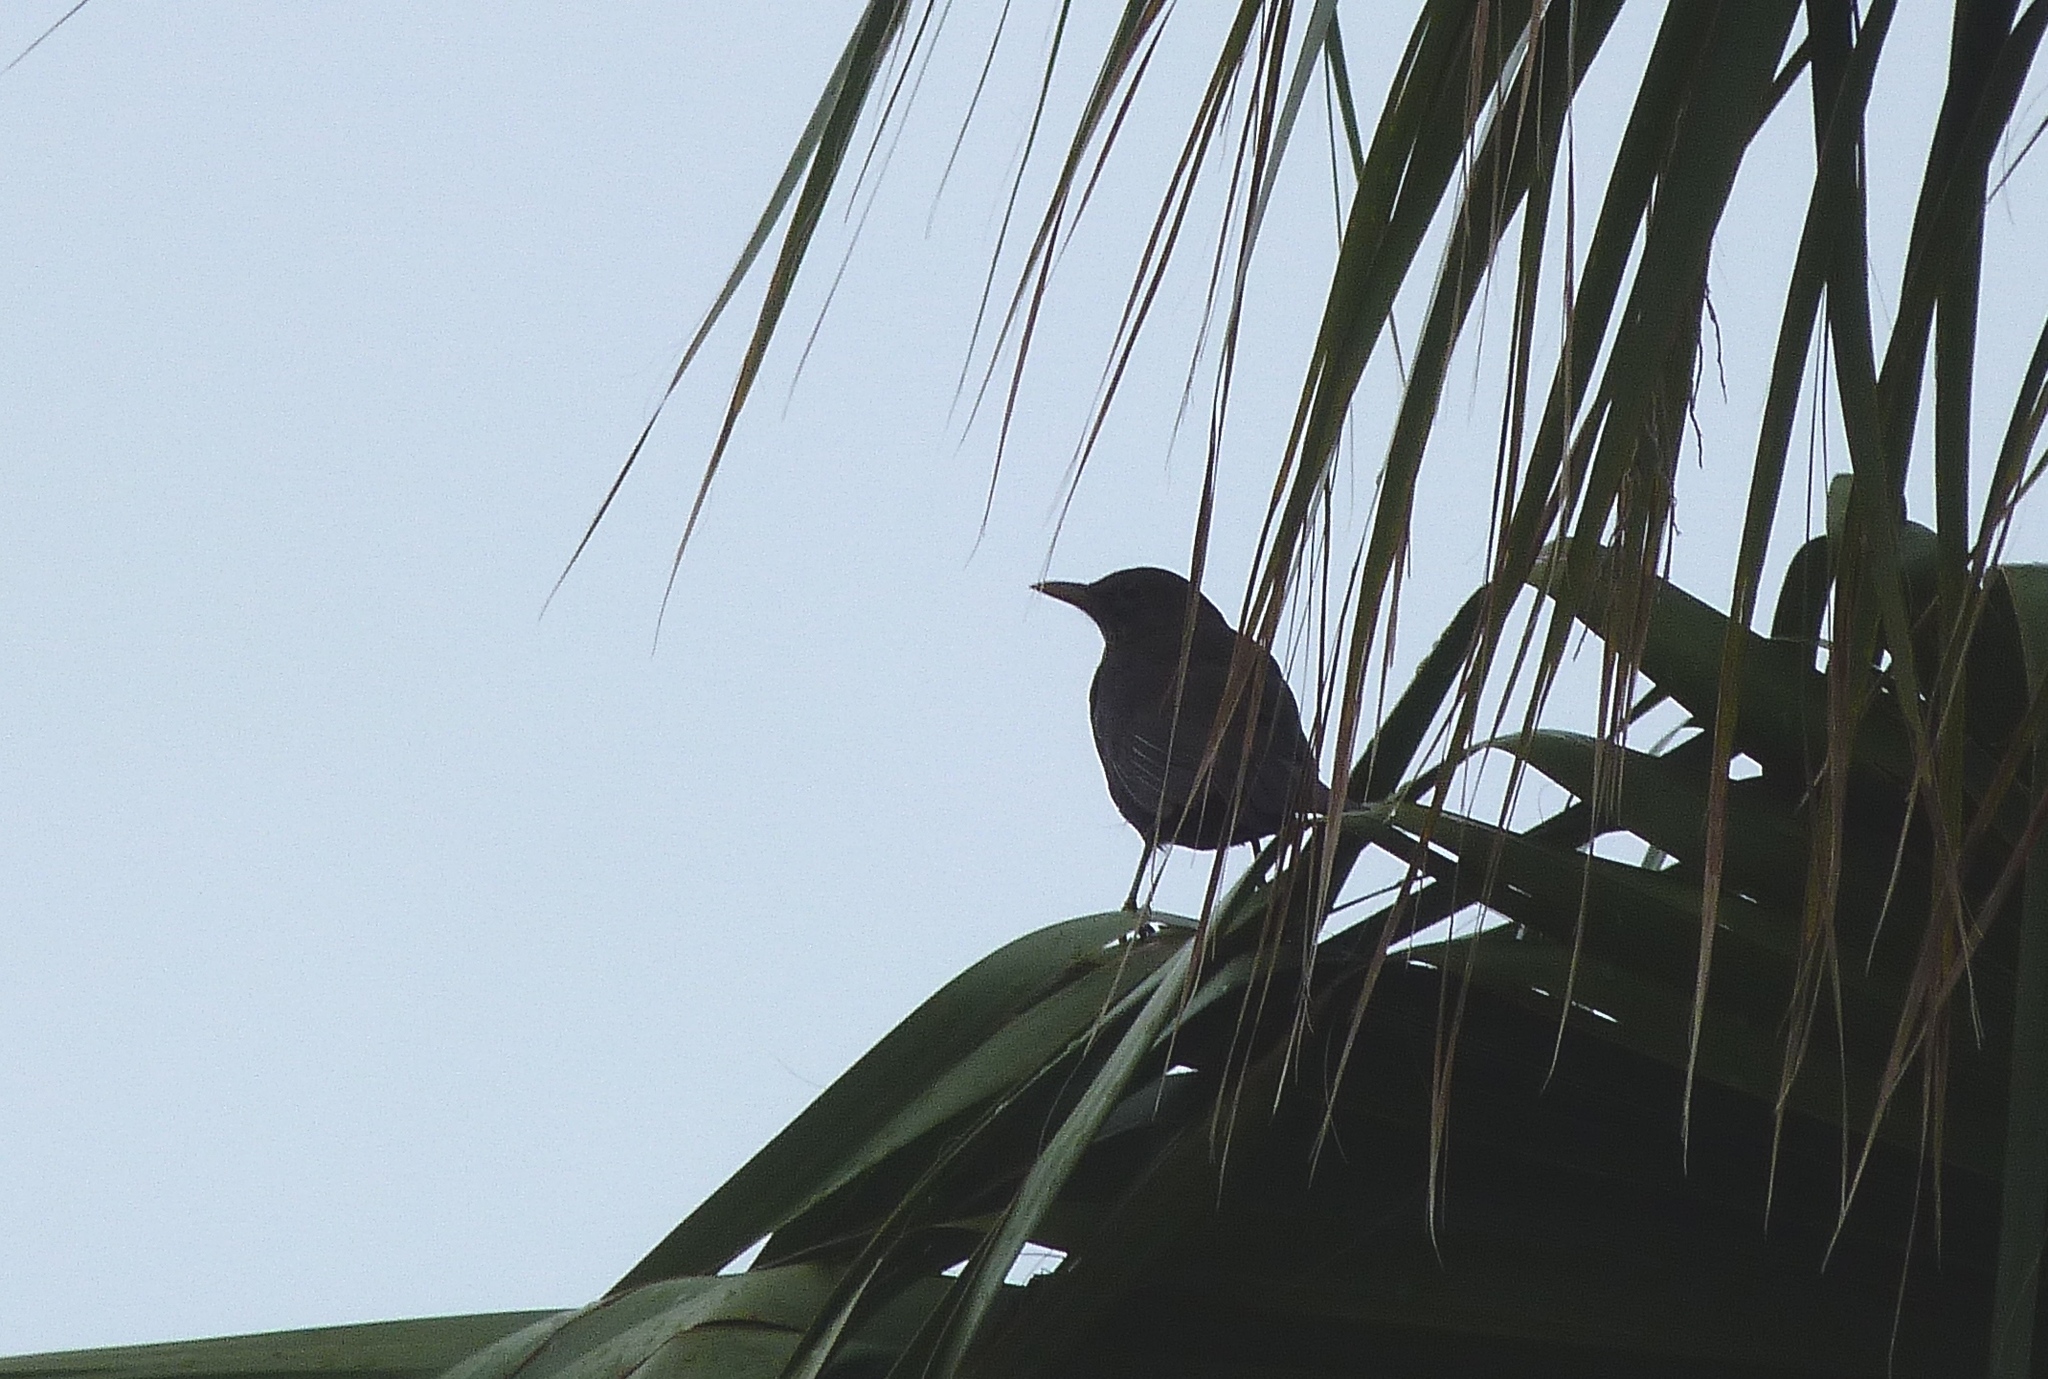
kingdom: Animalia
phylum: Chordata
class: Aves
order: Passeriformes
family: Turdidae
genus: Turdus
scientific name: Turdus merula
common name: Common blackbird
